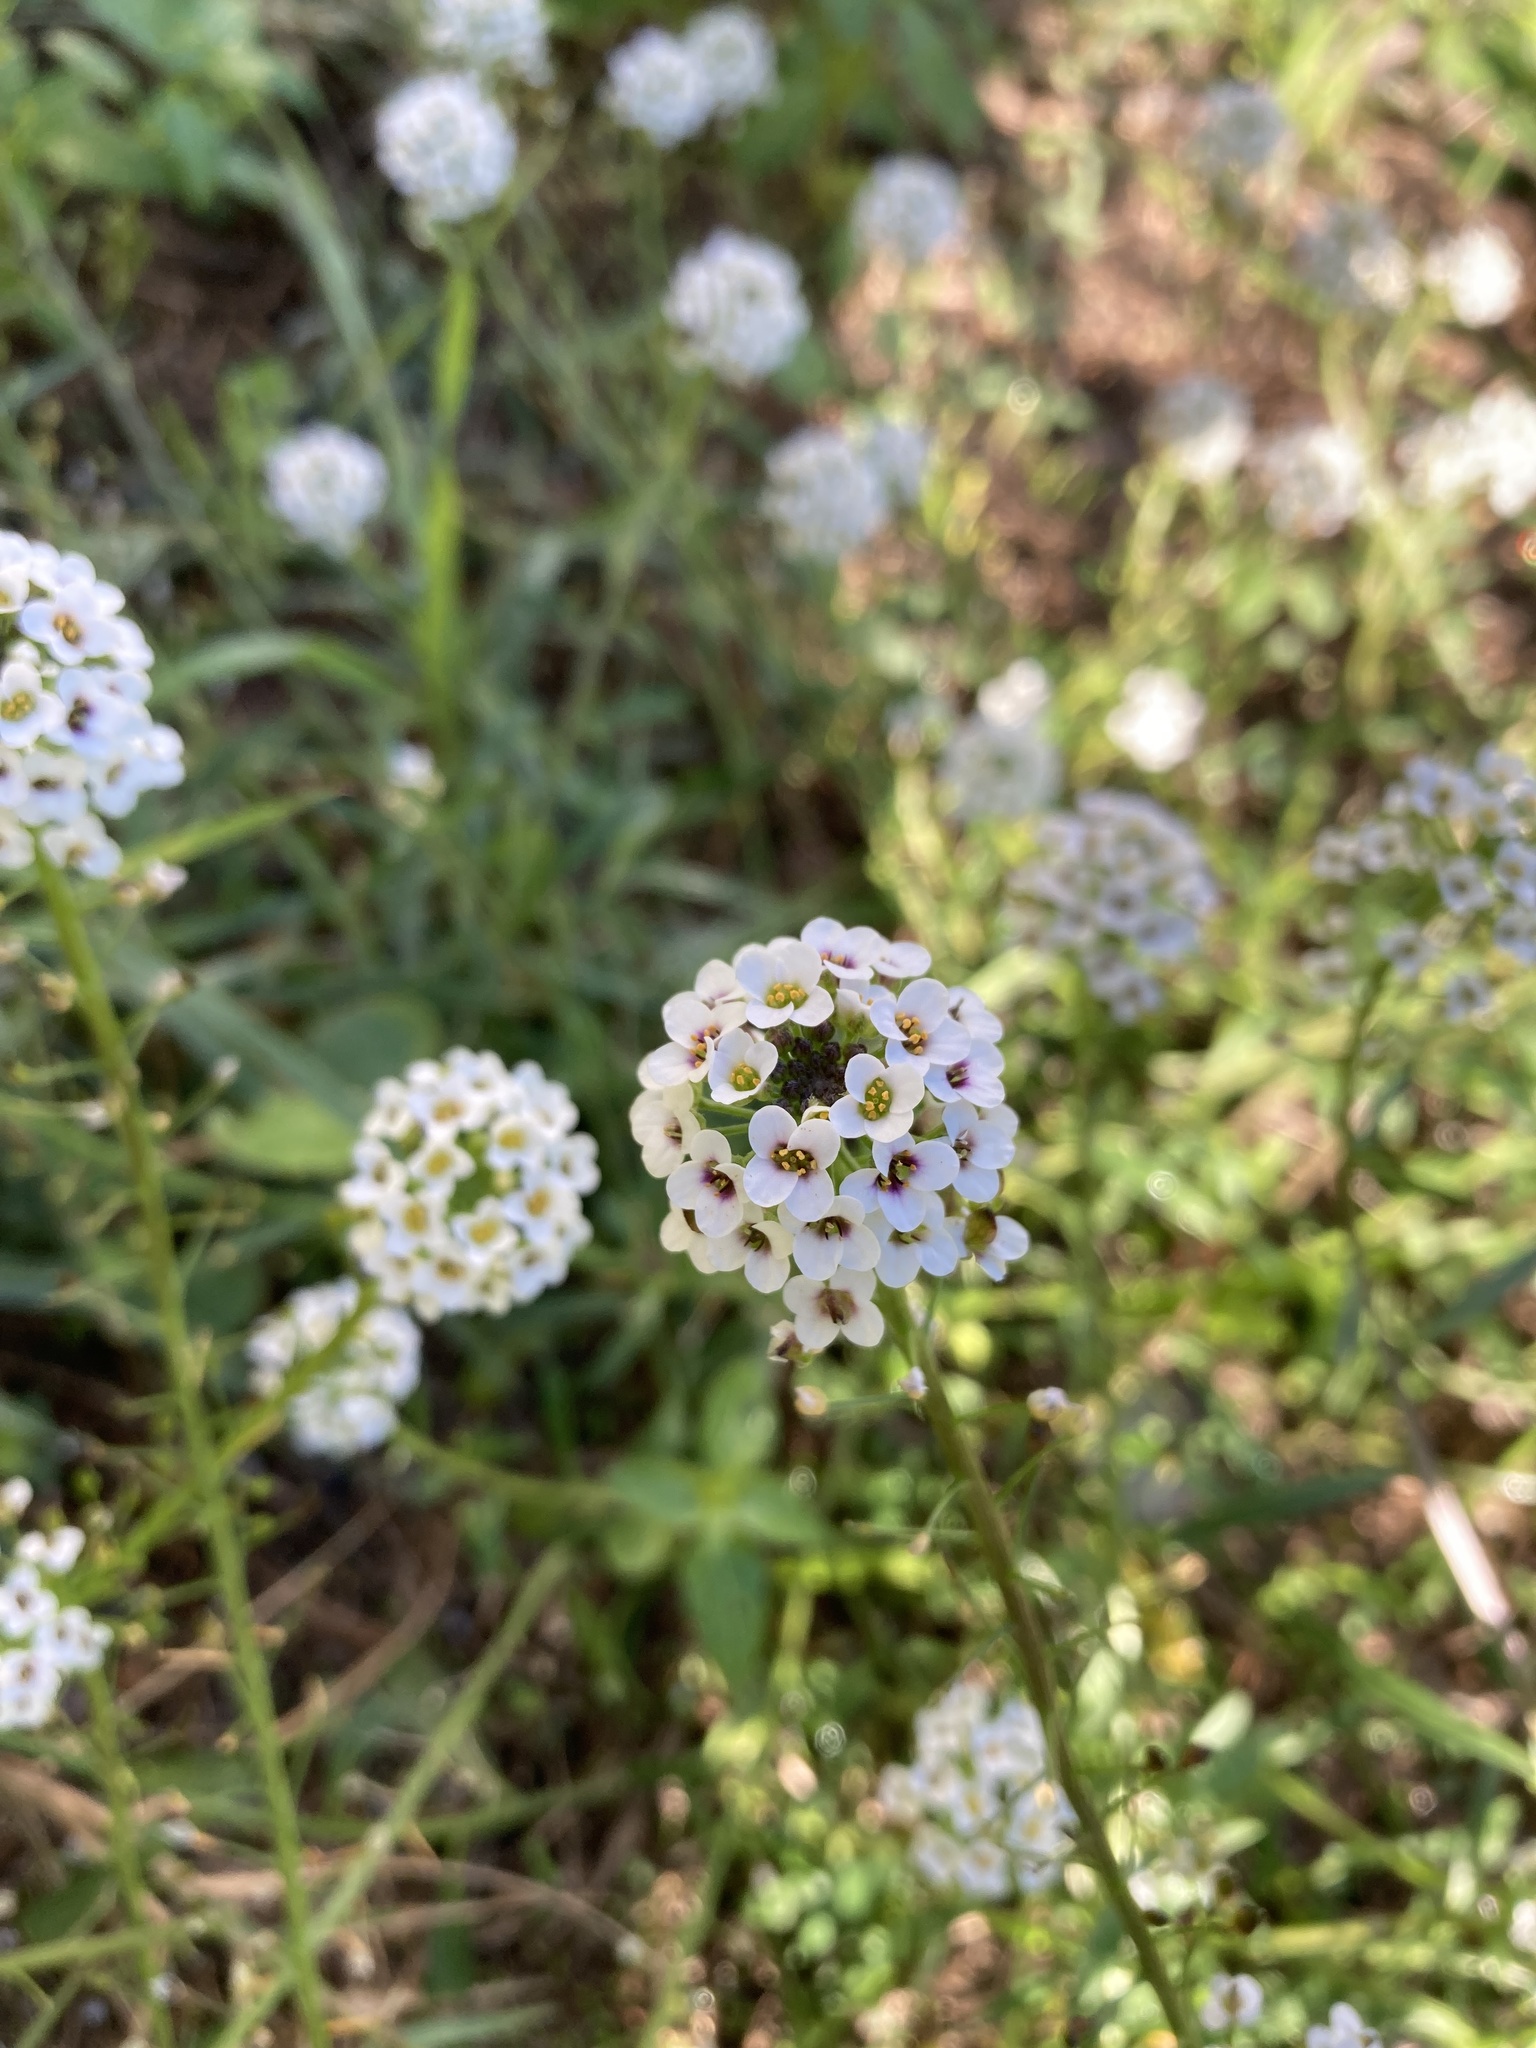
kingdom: Plantae
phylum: Tracheophyta
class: Magnoliopsida
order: Brassicales
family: Brassicaceae
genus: Lobularia
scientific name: Lobularia maritima
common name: Sweet alison
